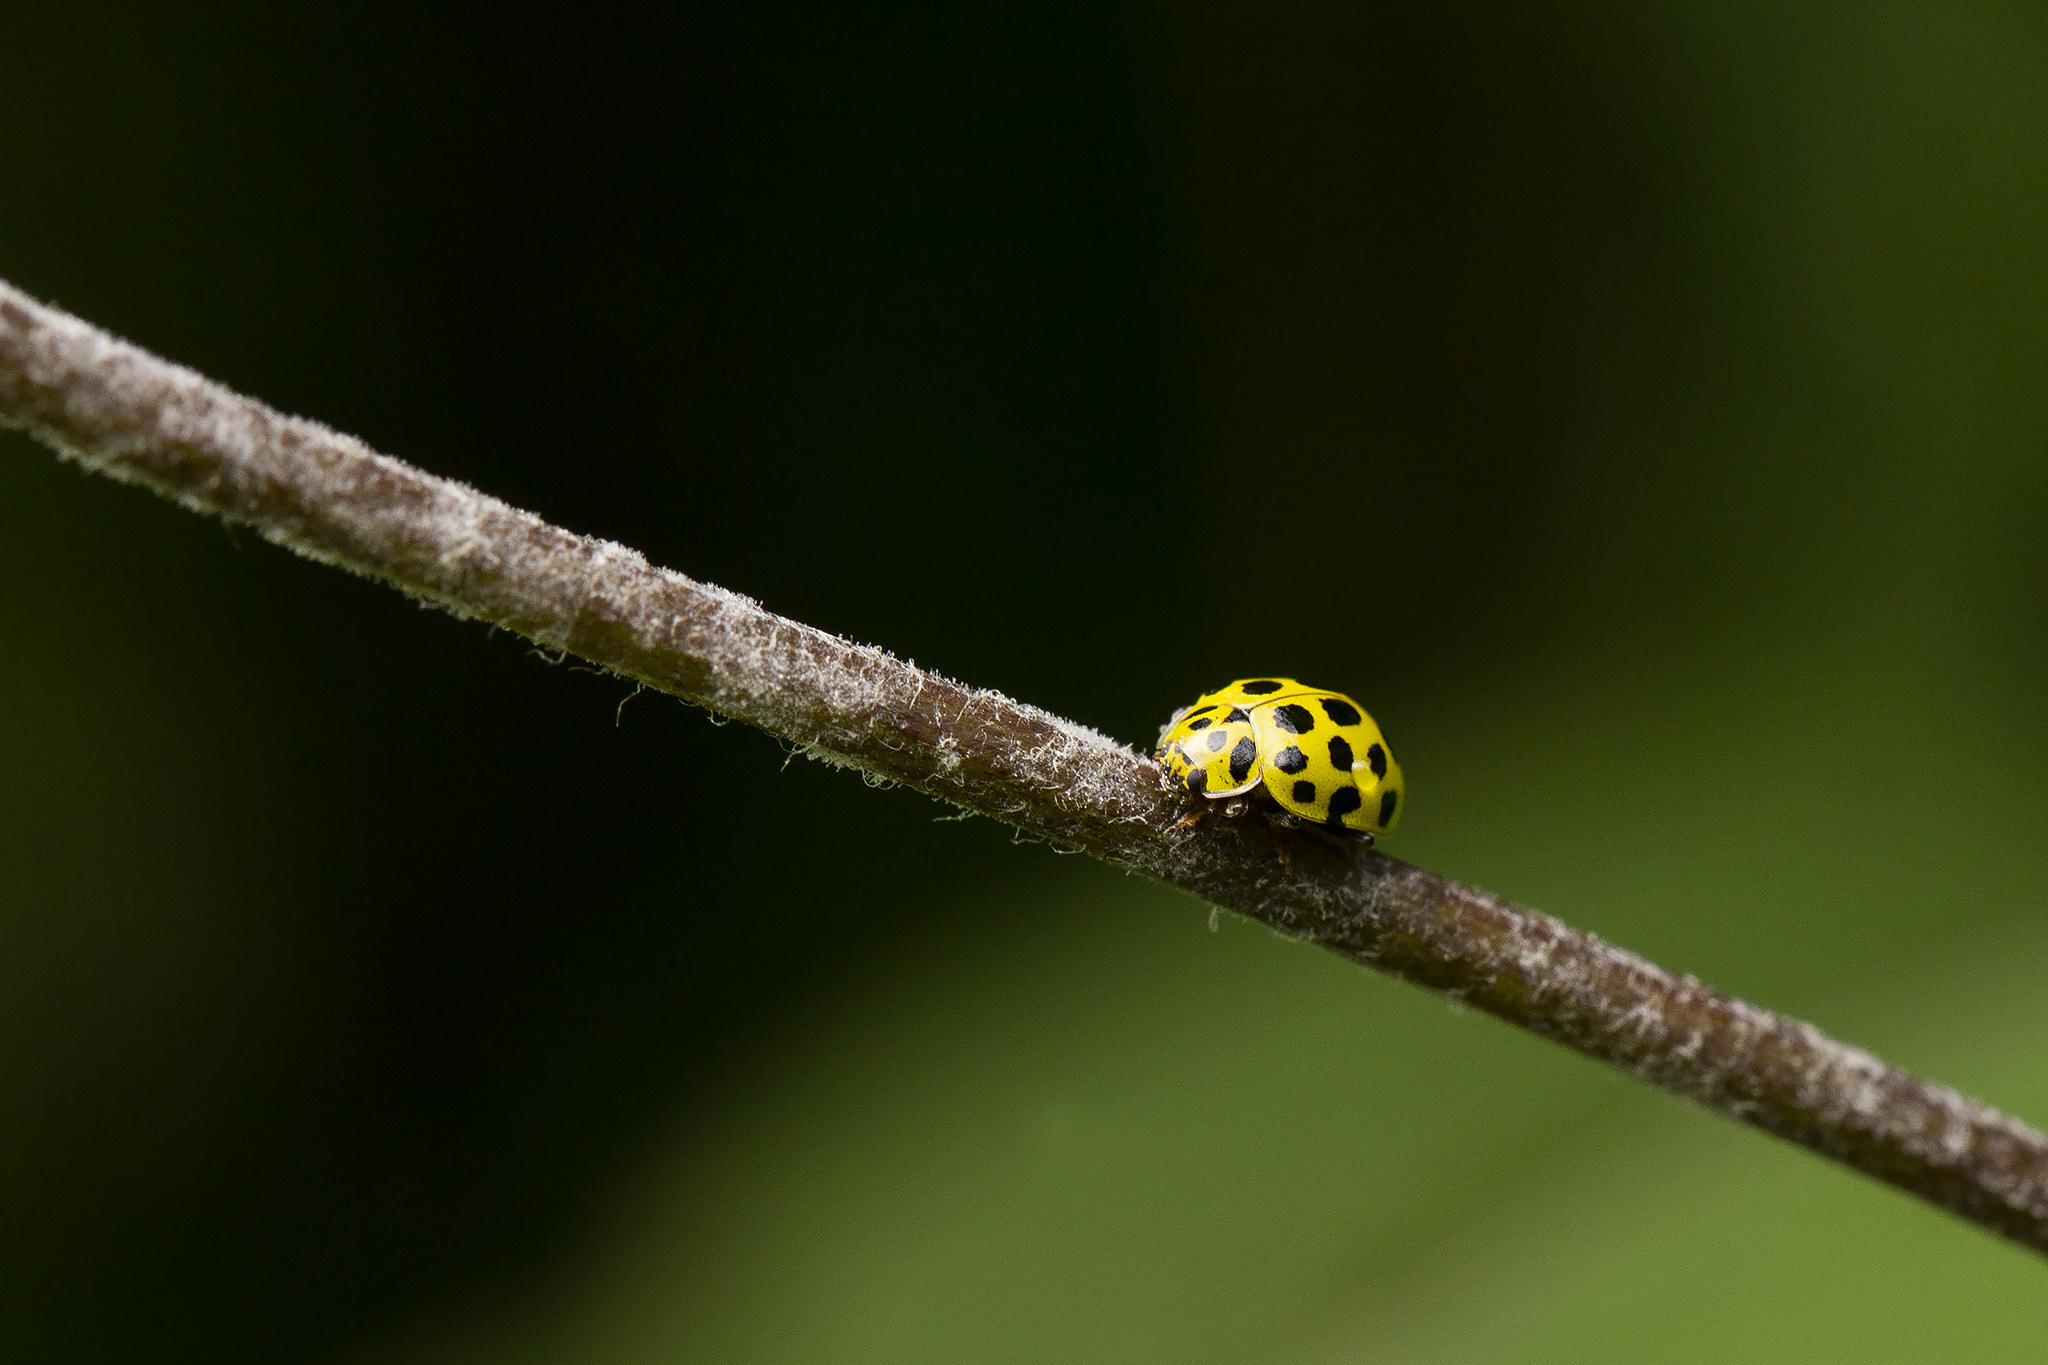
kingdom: Animalia
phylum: Arthropoda
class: Insecta
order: Coleoptera
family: Coccinellidae
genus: Psyllobora
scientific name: Psyllobora vigintiduopunctata
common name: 22-spot ladybird
